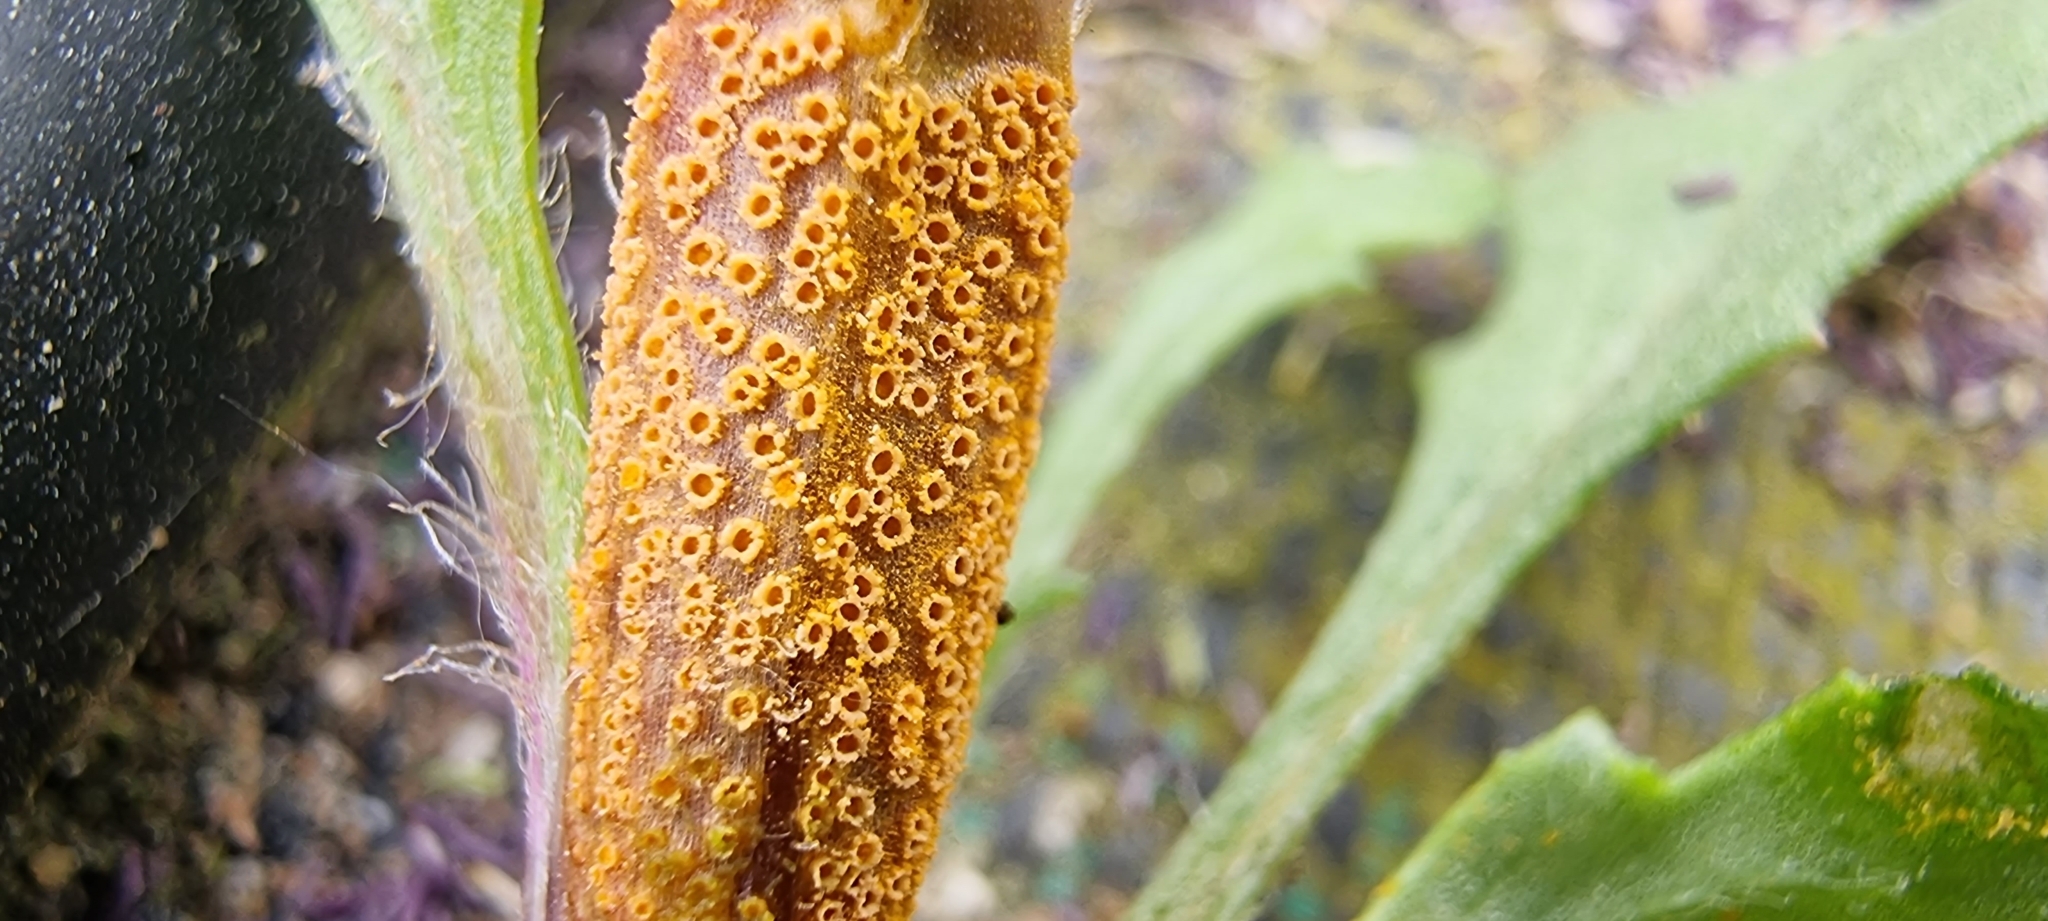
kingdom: Fungi
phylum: Basidiomycota
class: Pucciniomycetes
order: Pucciniales
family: Pucciniaceae
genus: Puccinia
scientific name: Puccinia lagenophorae
